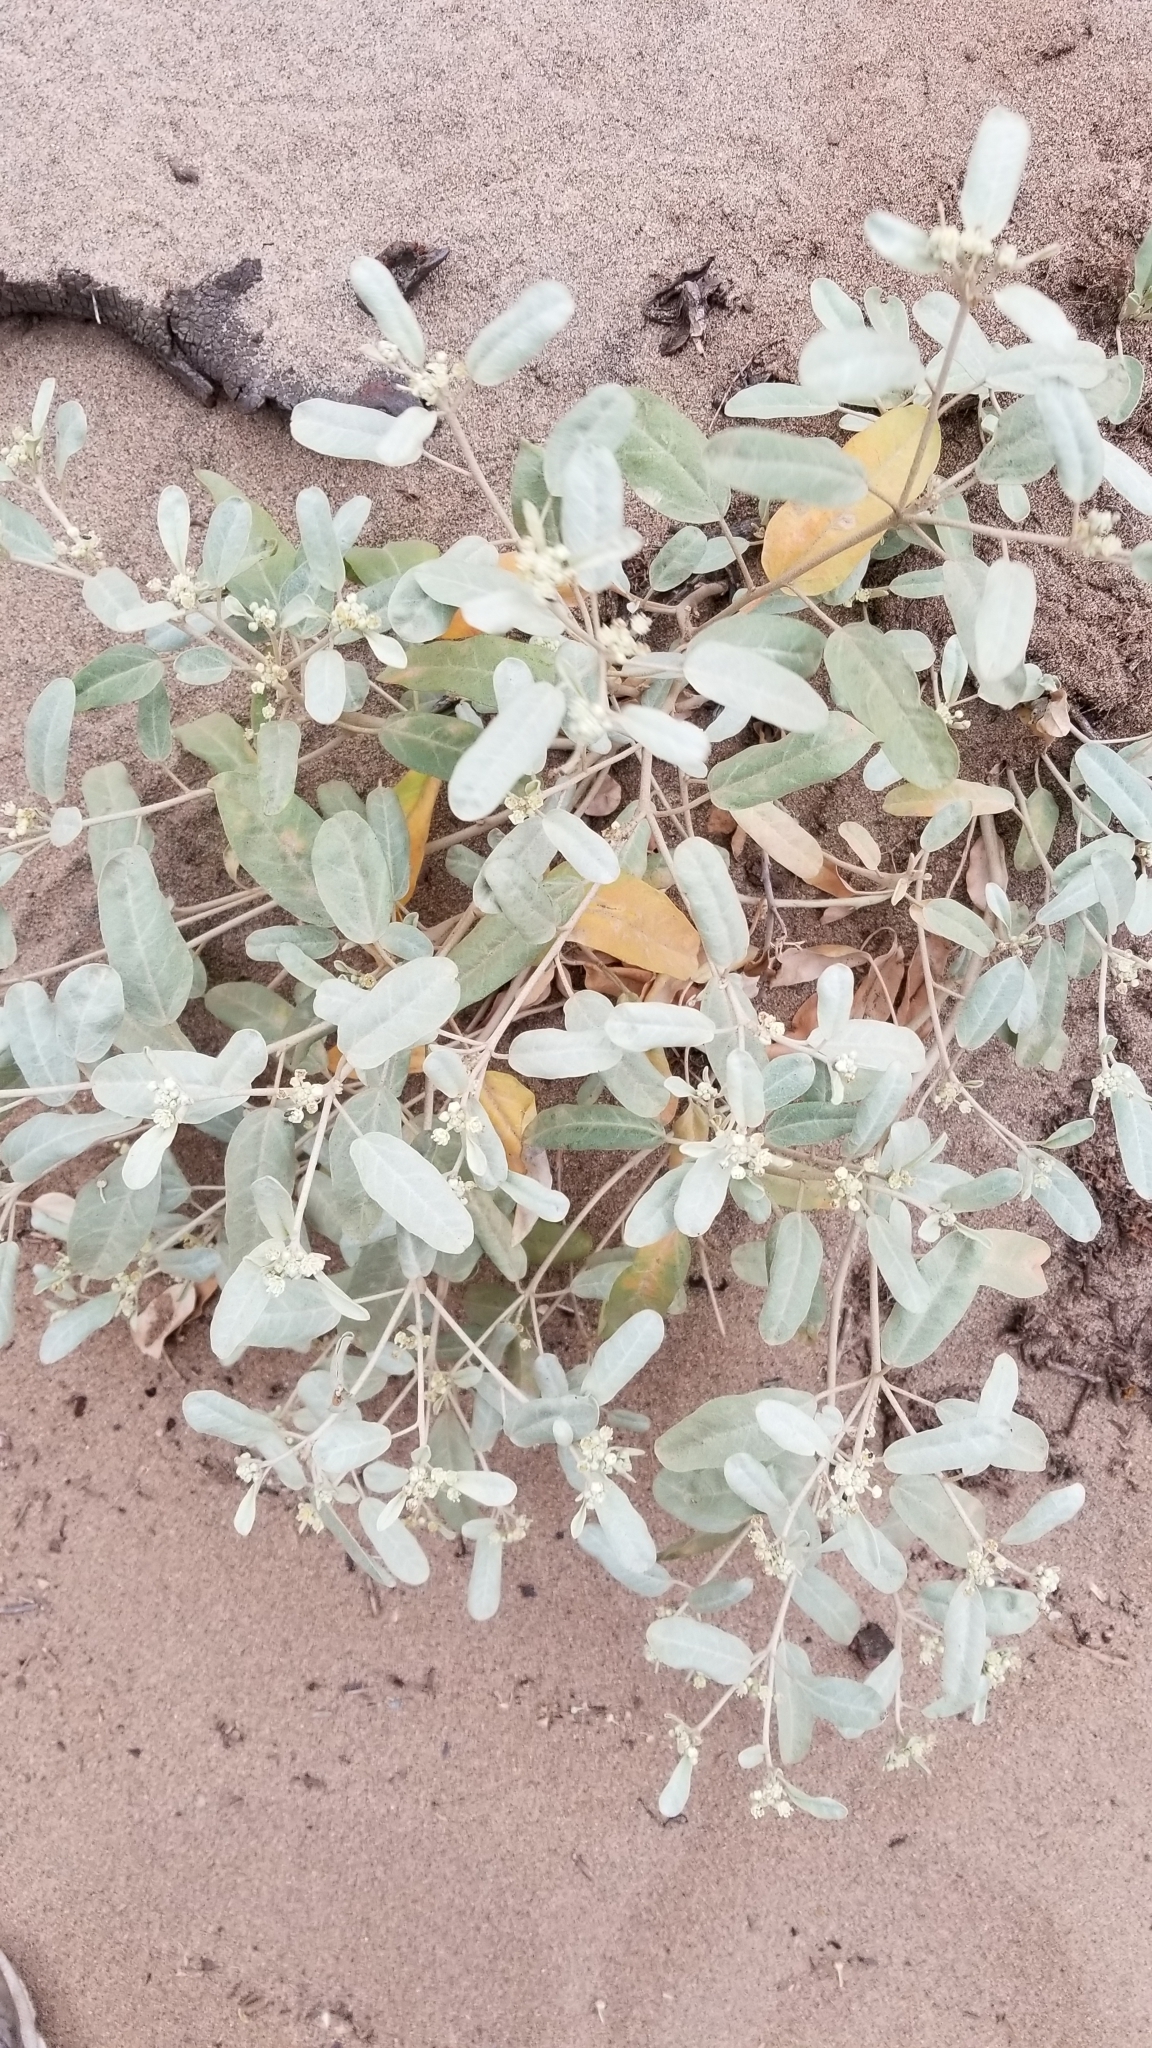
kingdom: Plantae
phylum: Tracheophyta
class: Magnoliopsida
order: Malpighiales
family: Euphorbiaceae
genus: Croton
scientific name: Croton californicus
